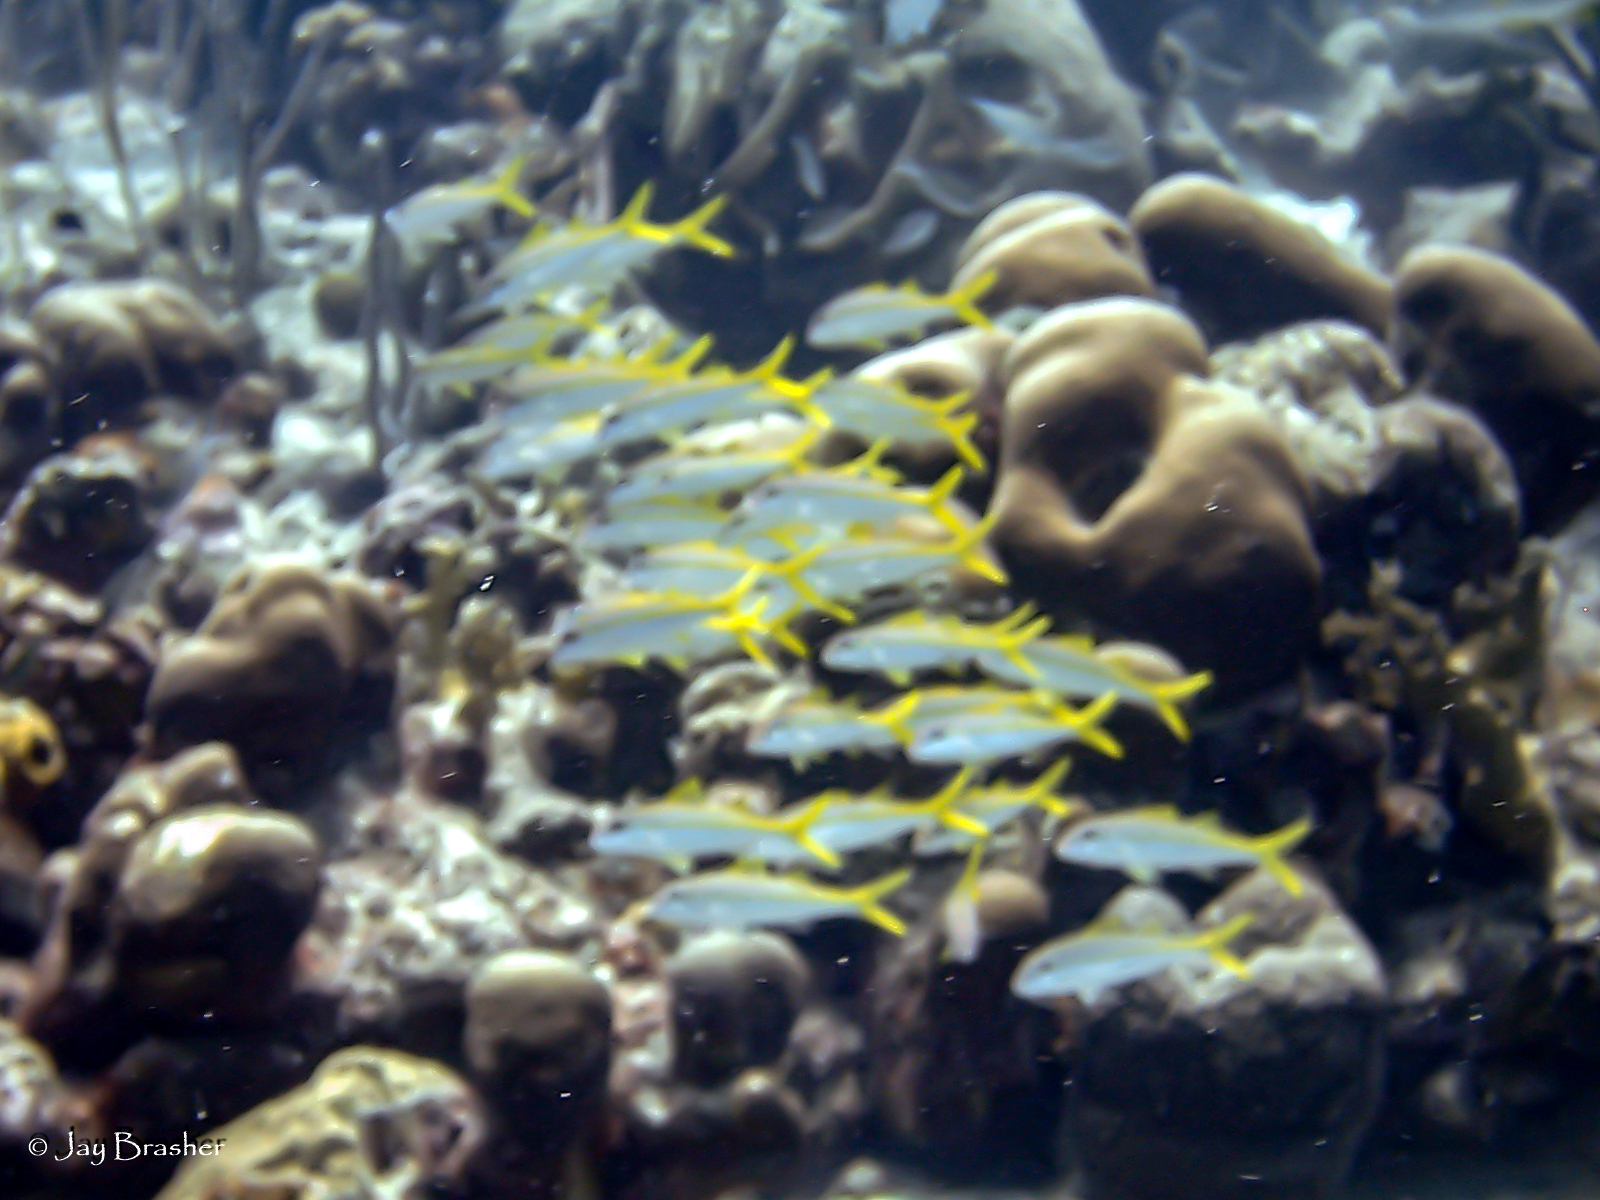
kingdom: Animalia
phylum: Chordata
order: Perciformes
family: Mullidae
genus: Mulloidichthys
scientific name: Mulloidichthys martinicus
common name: Yellow goatfish
